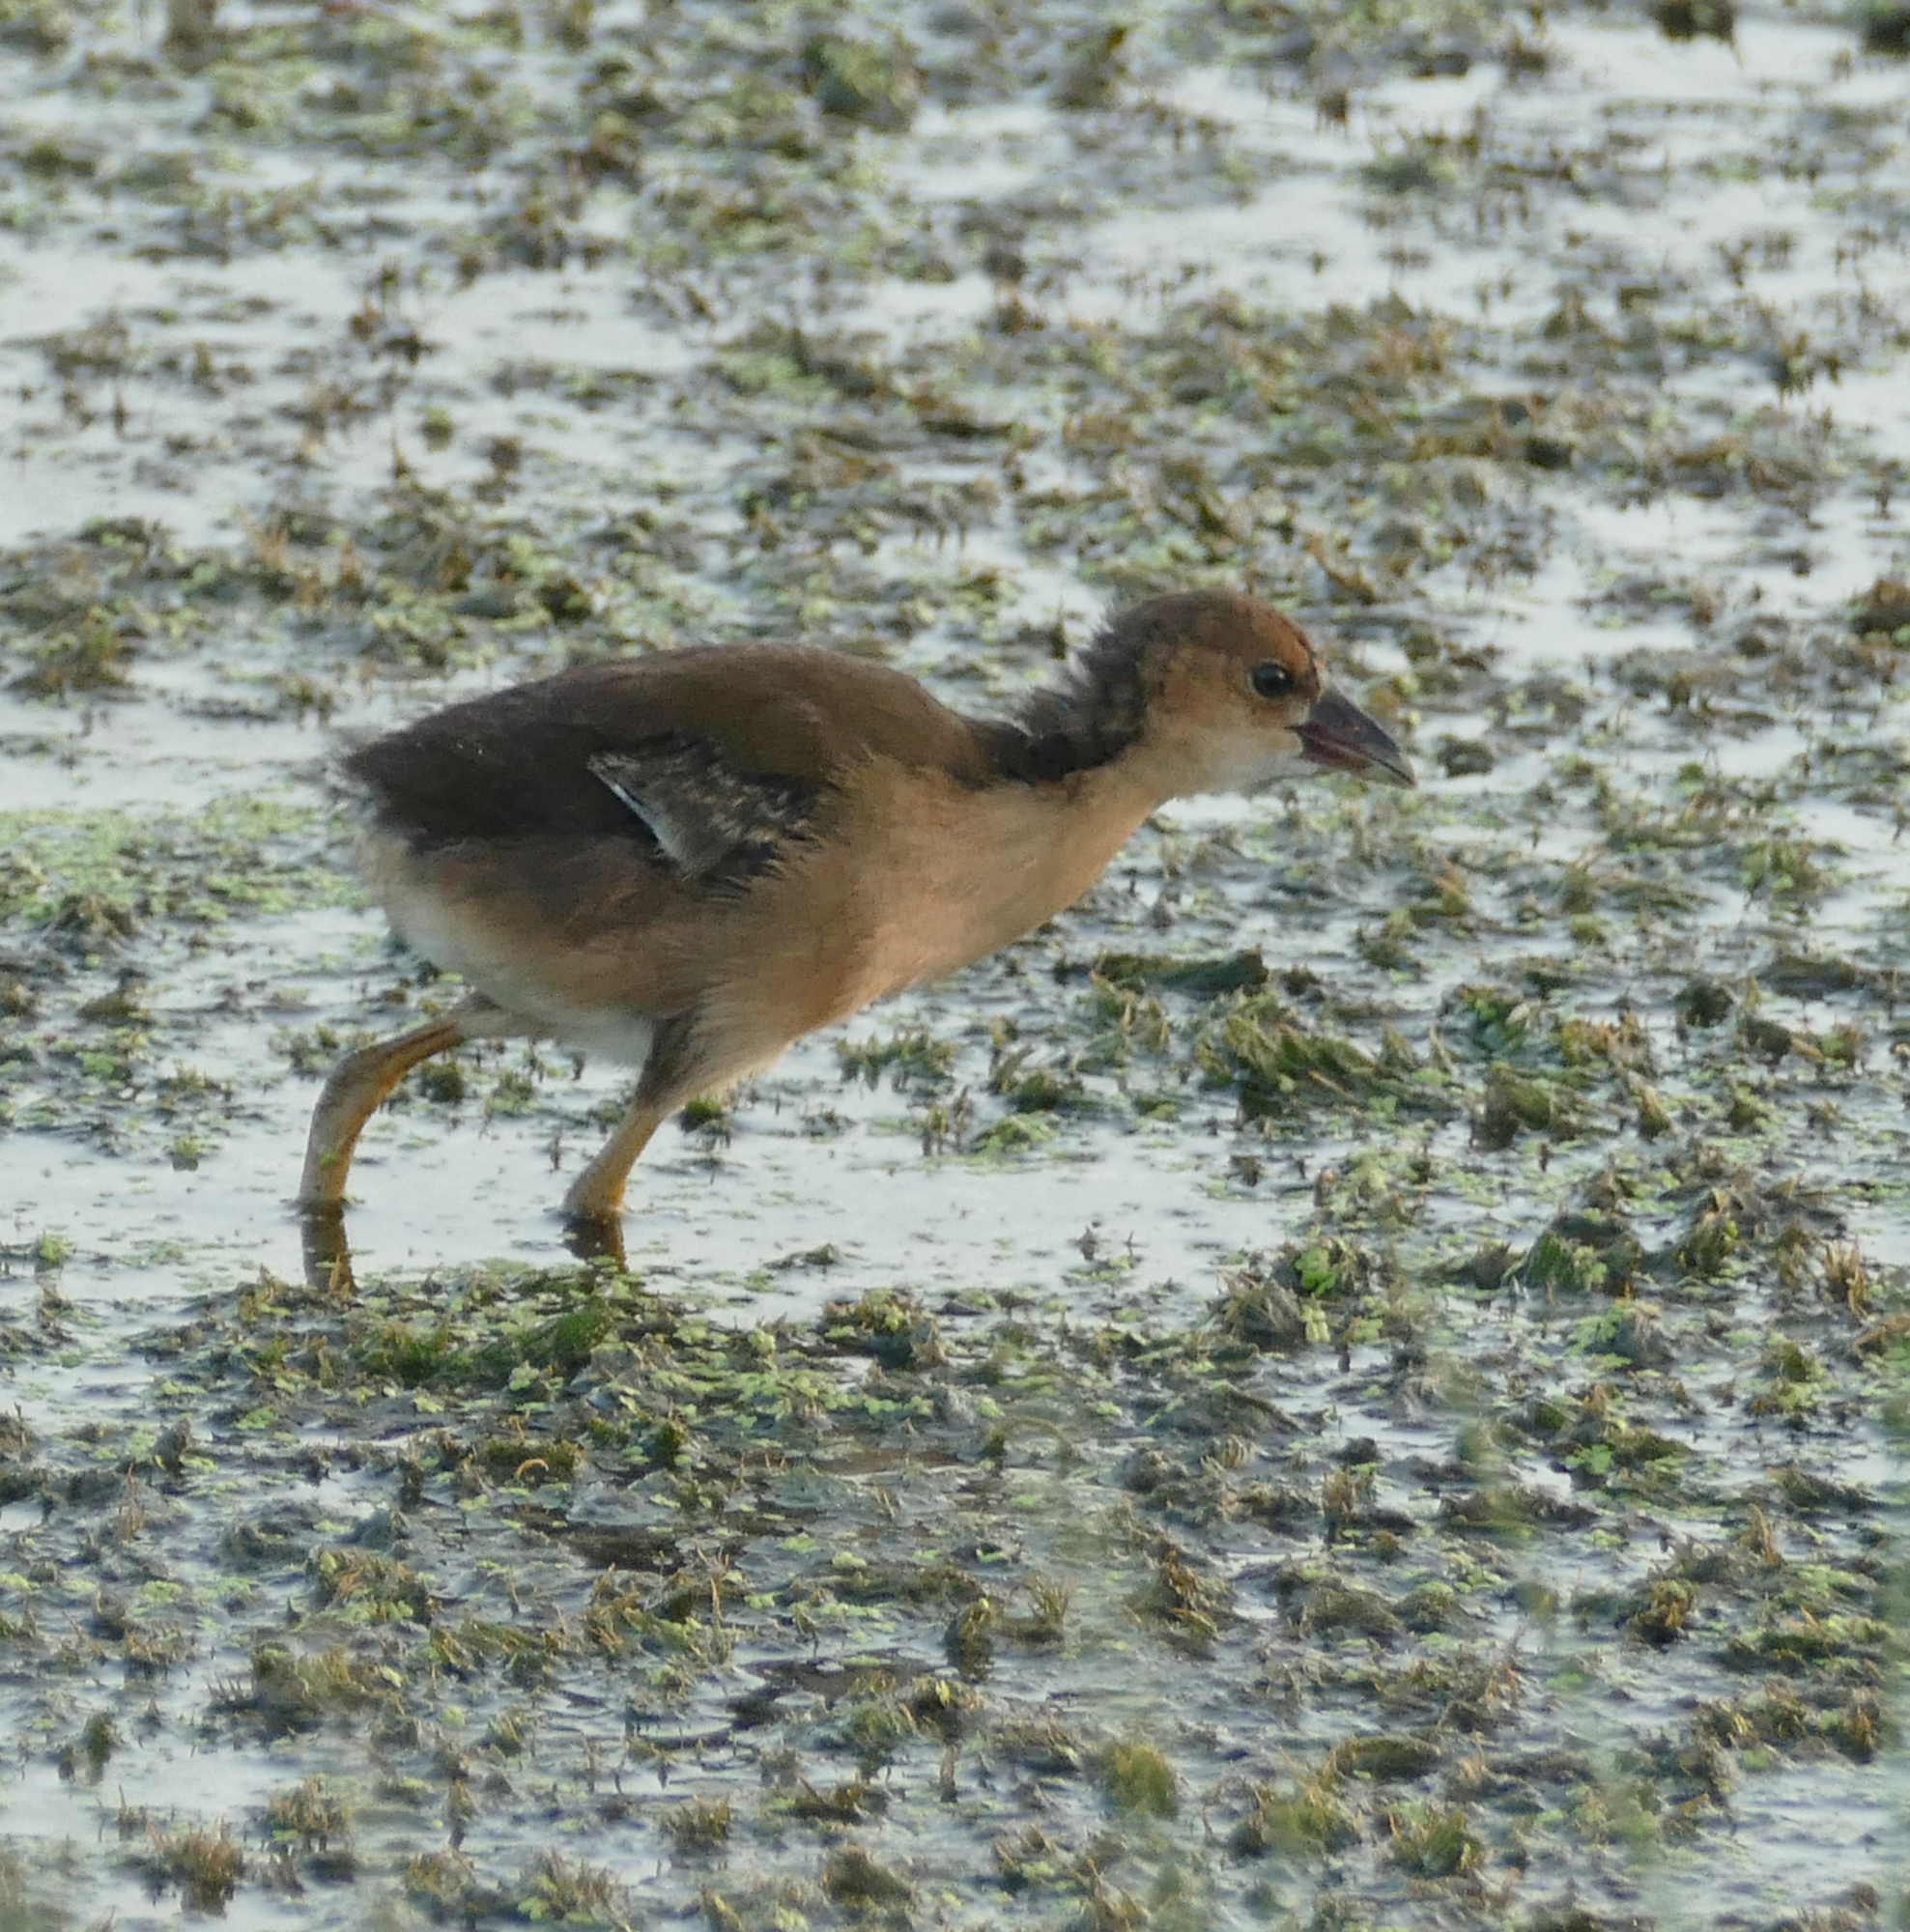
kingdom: Animalia
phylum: Chordata
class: Aves
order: Gruiformes
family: Rallidae
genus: Porphyrio
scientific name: Porphyrio martinica
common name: Purple gallinule
